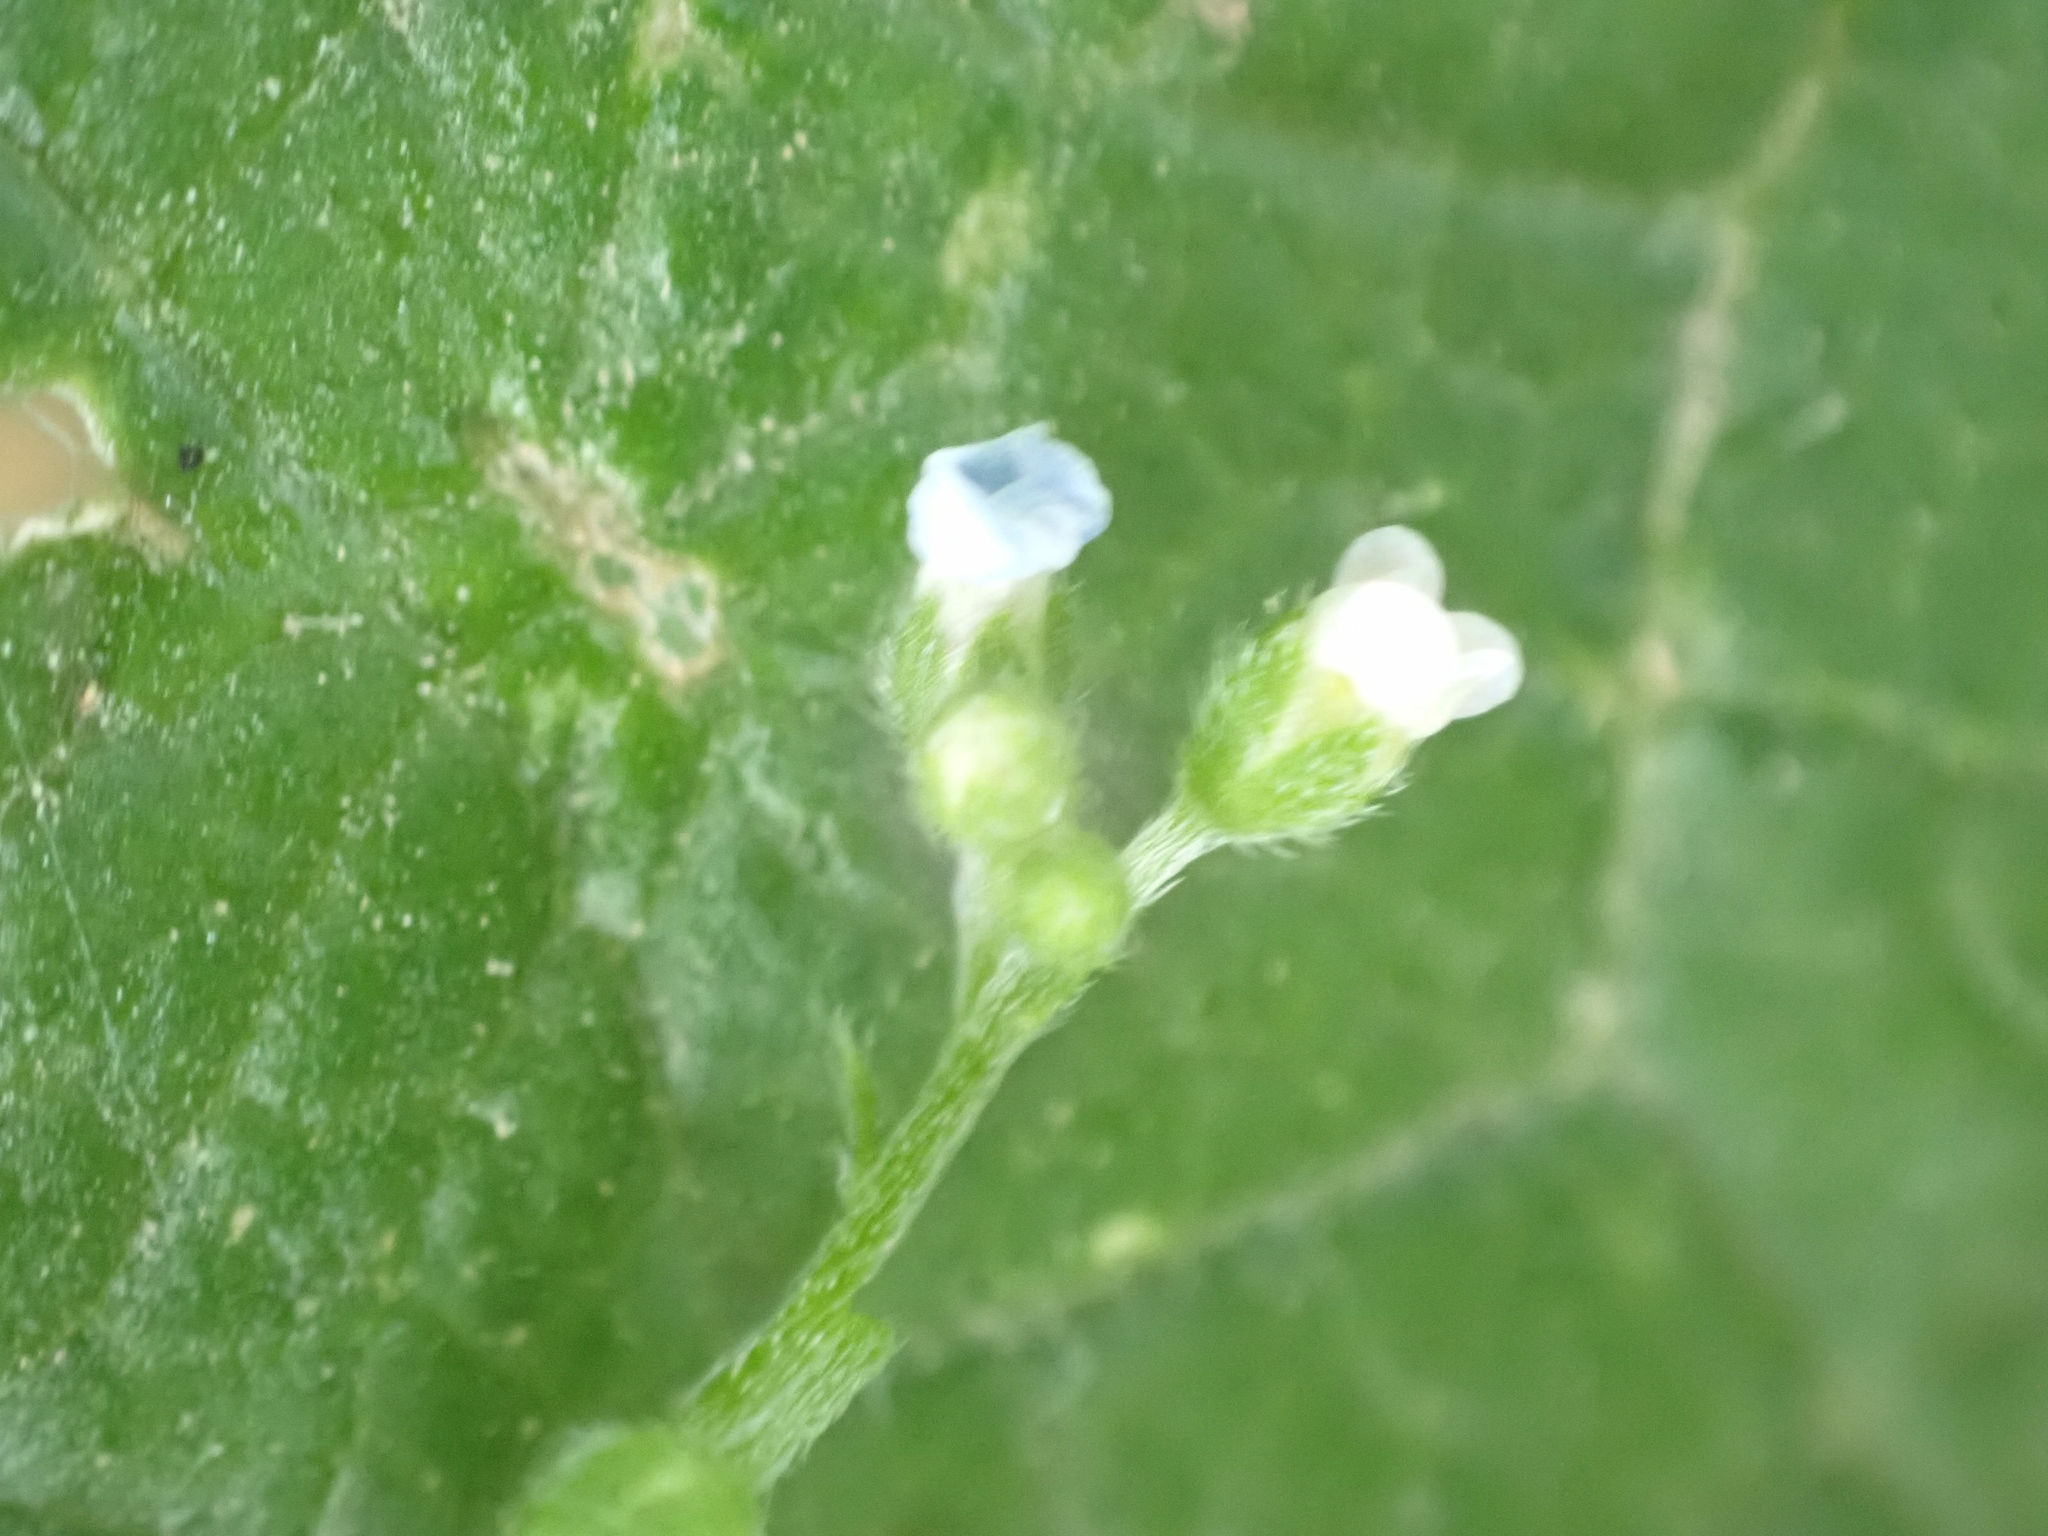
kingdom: Plantae
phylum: Tracheophyta
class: Magnoliopsida
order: Boraginales
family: Boraginaceae
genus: Hackelia
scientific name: Hackelia deflexa
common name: Nodding stickseed
